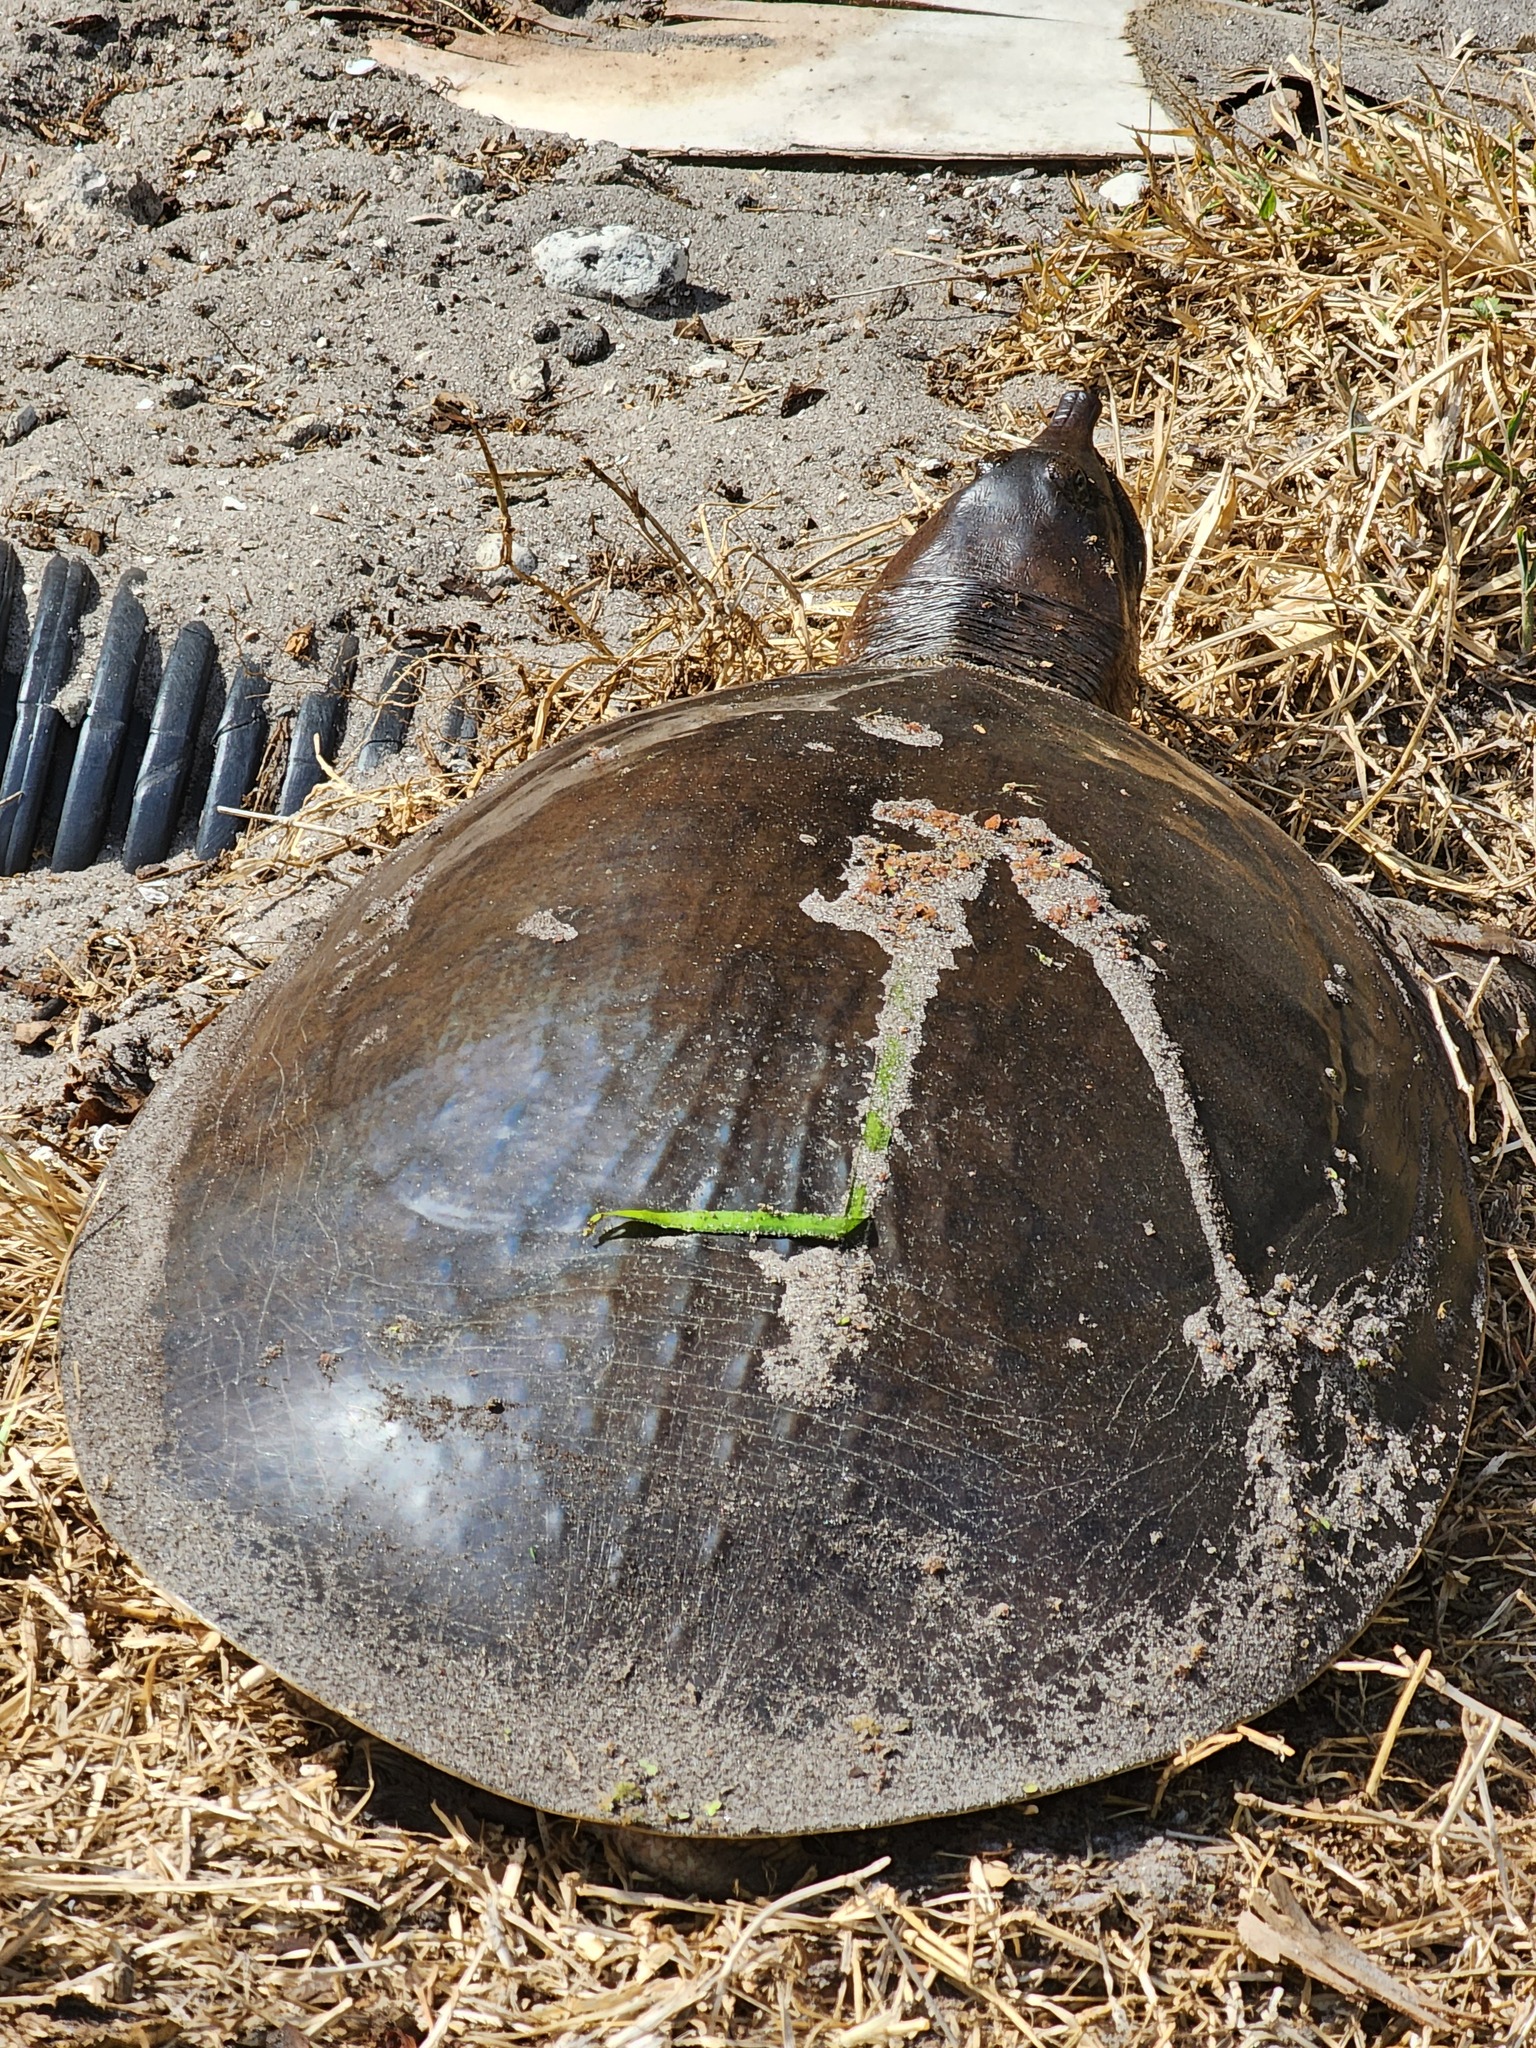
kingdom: Animalia
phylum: Chordata
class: Testudines
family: Trionychidae
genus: Apalone
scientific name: Apalone ferox
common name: Florida softshell turtle
